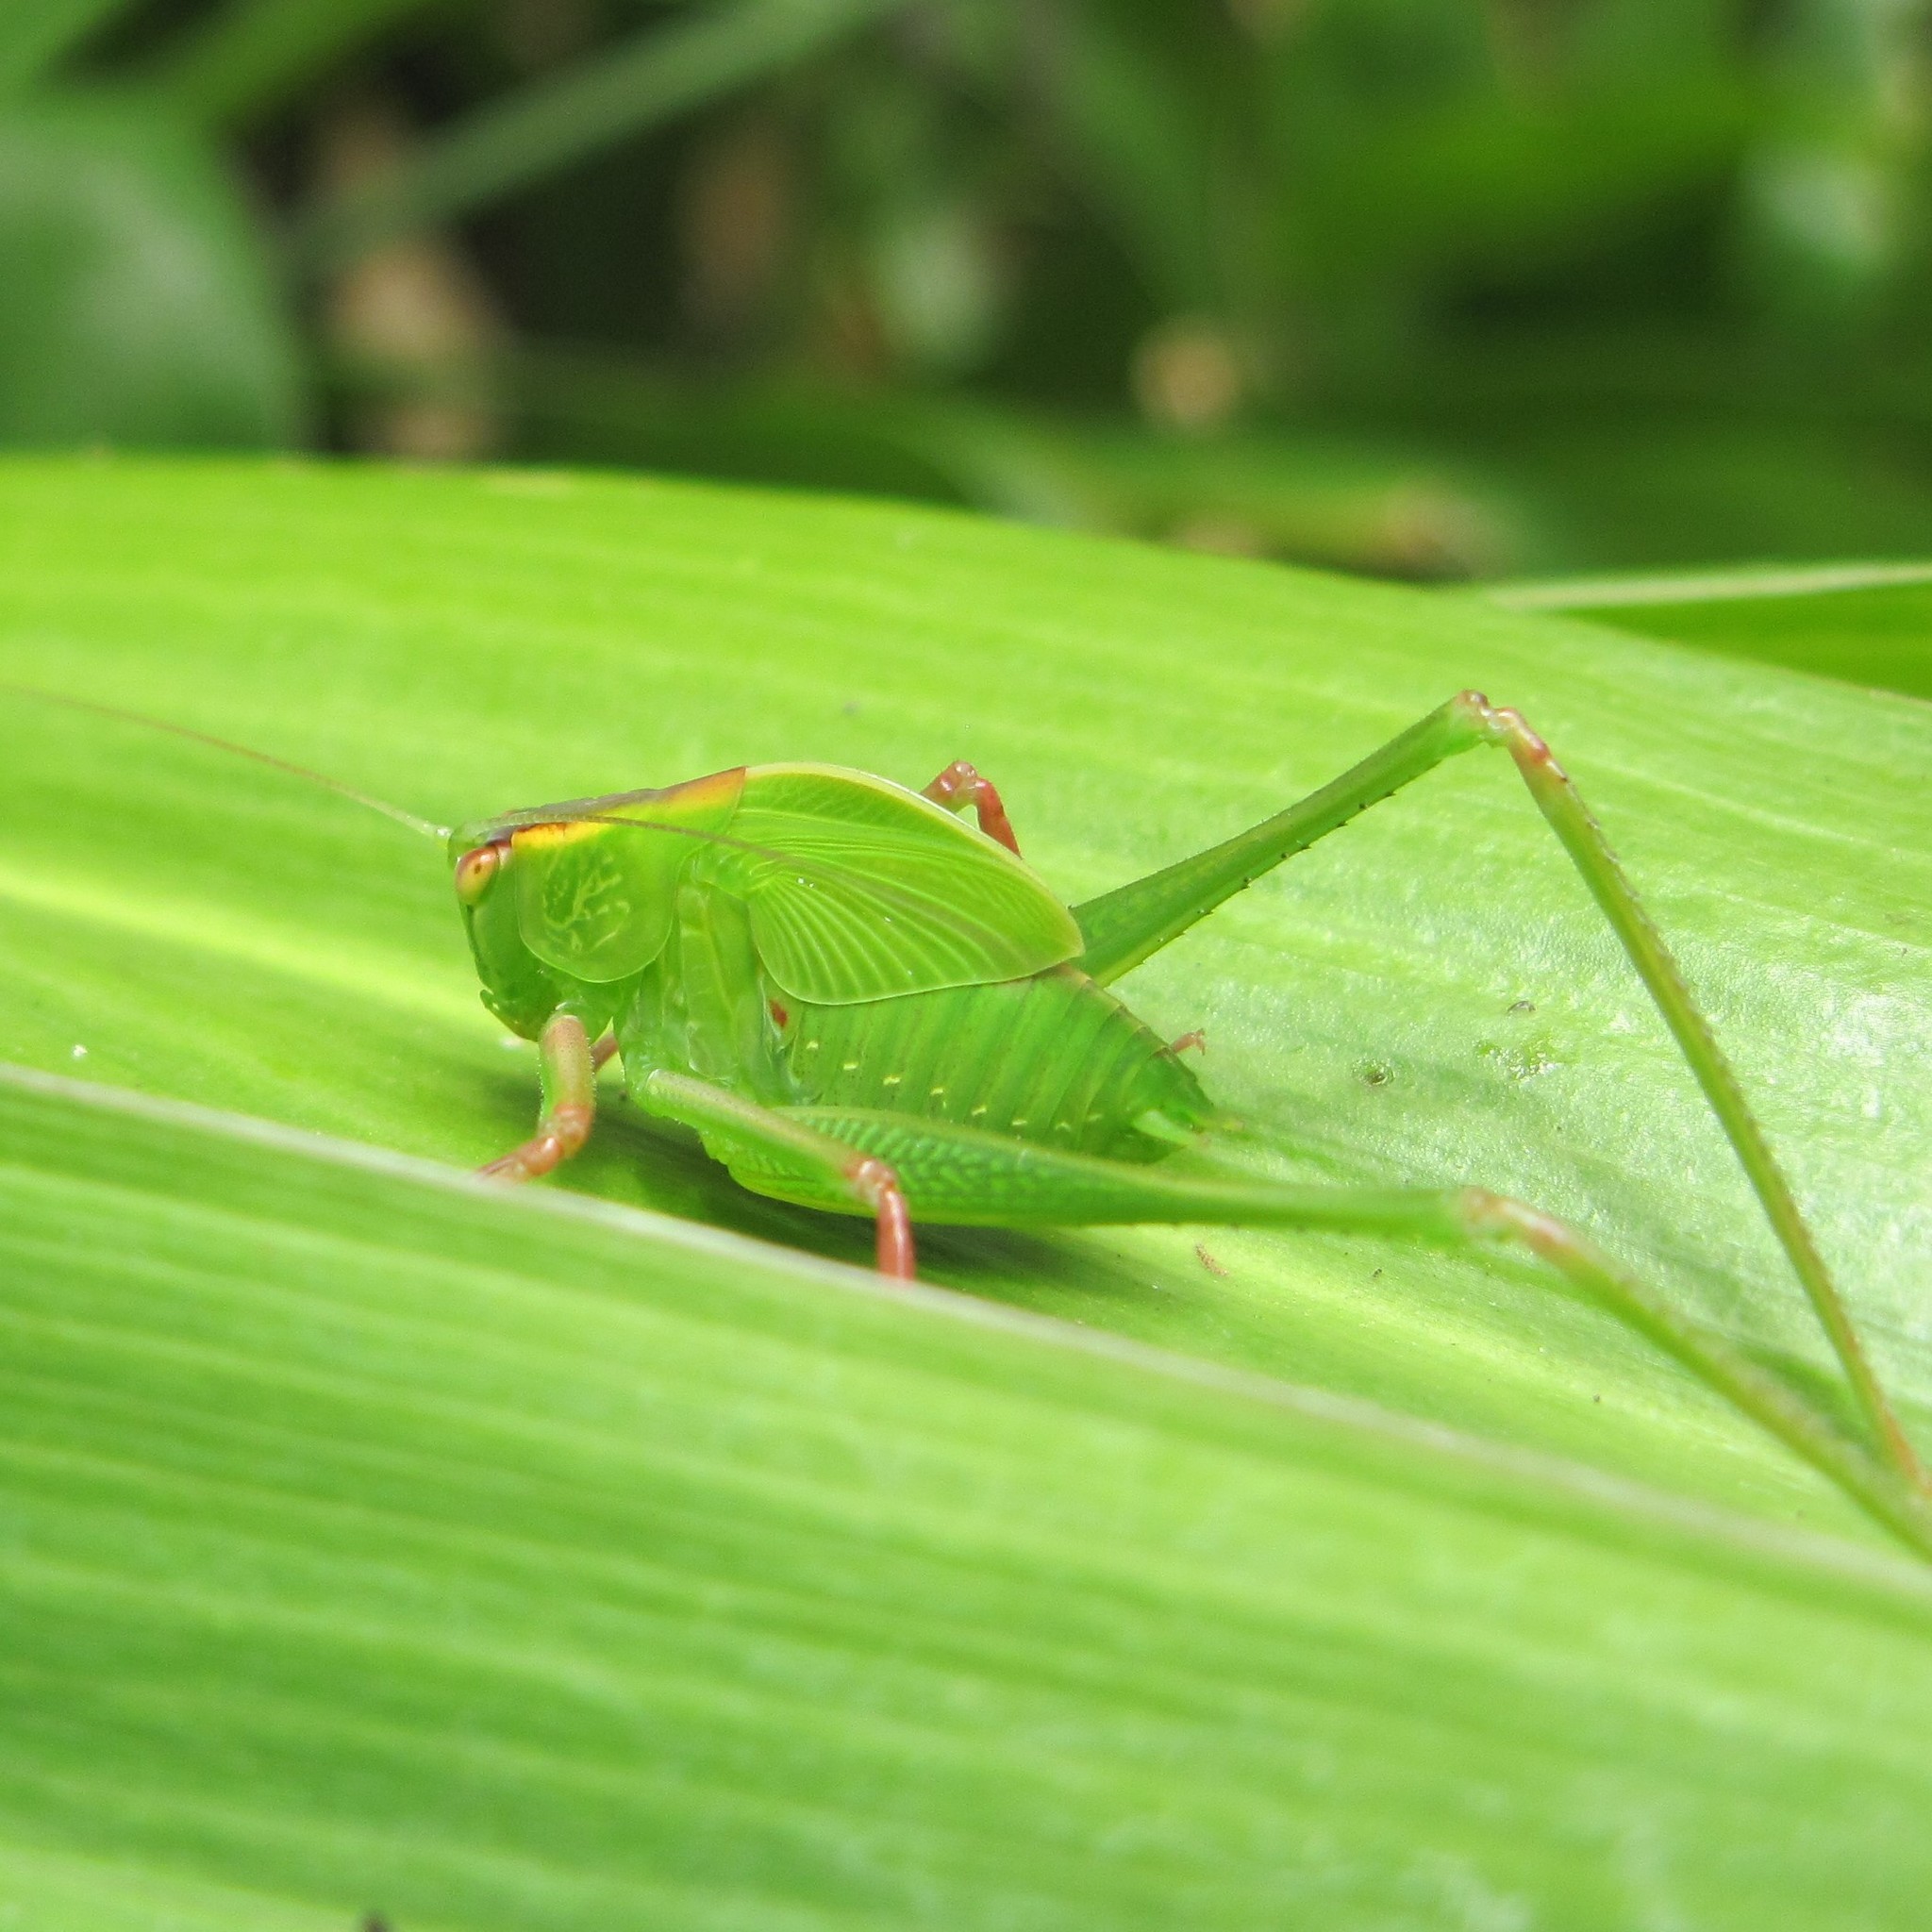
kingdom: Animalia
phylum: Arthropoda
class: Insecta
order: Orthoptera
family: Tettigoniidae
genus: Caedicia
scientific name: Caedicia simplex
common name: Common garden katydid
